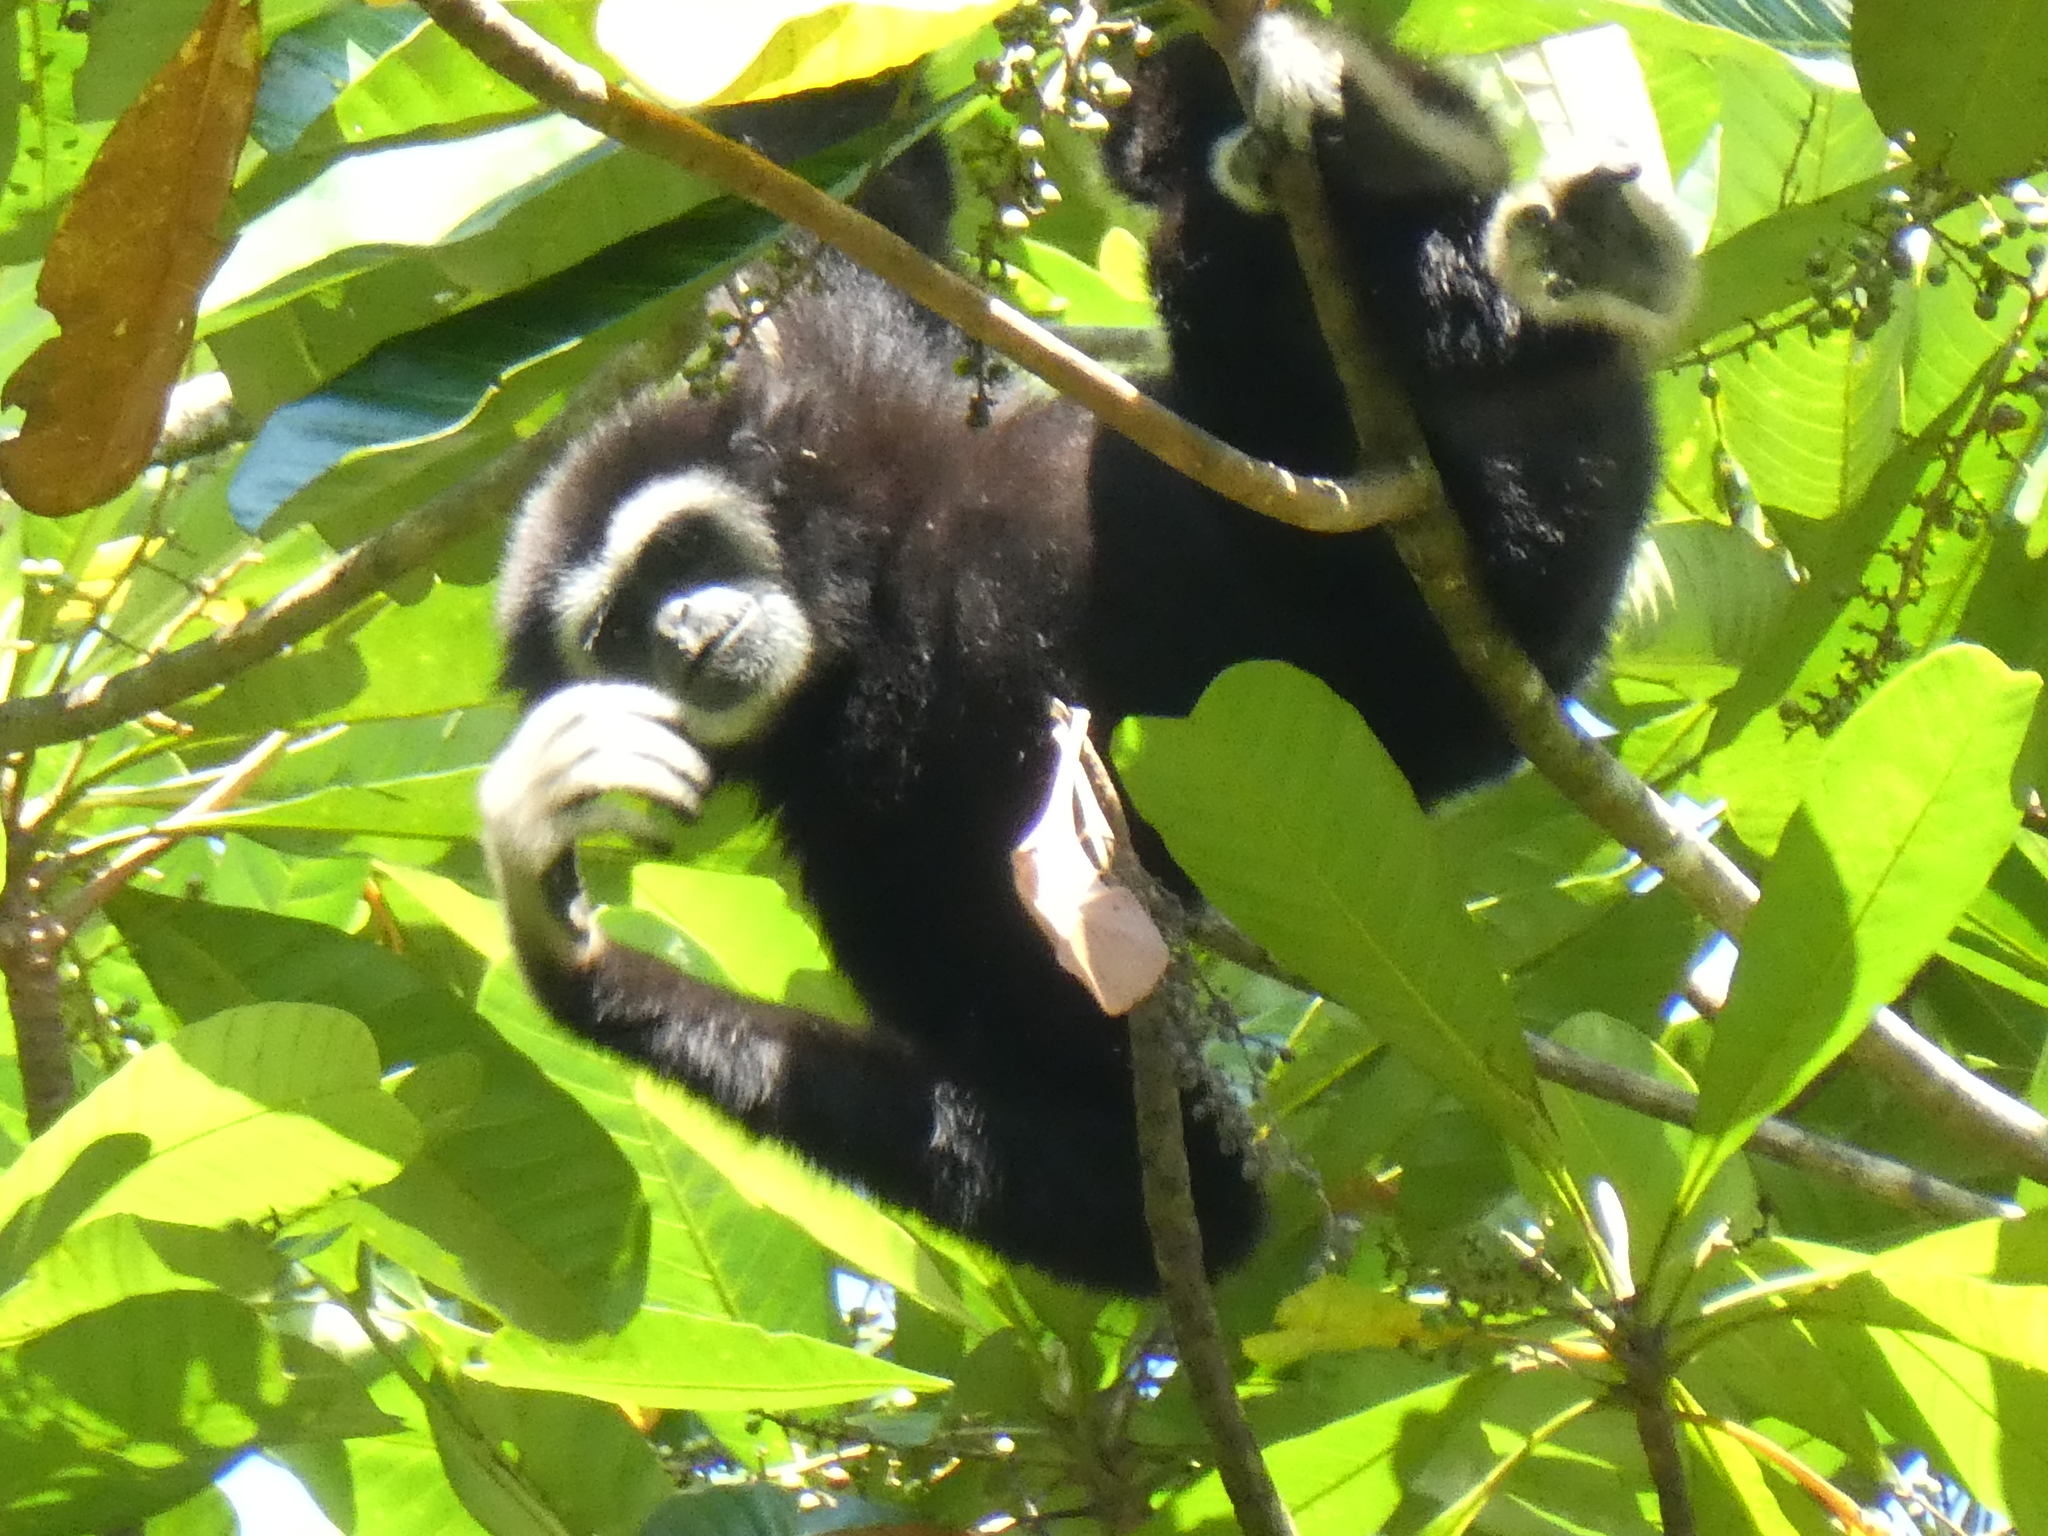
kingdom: Animalia
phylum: Chordata
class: Mammalia
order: Primates
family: Hylobatidae
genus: Hylobates
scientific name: Hylobates lar
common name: Lar gibbon
